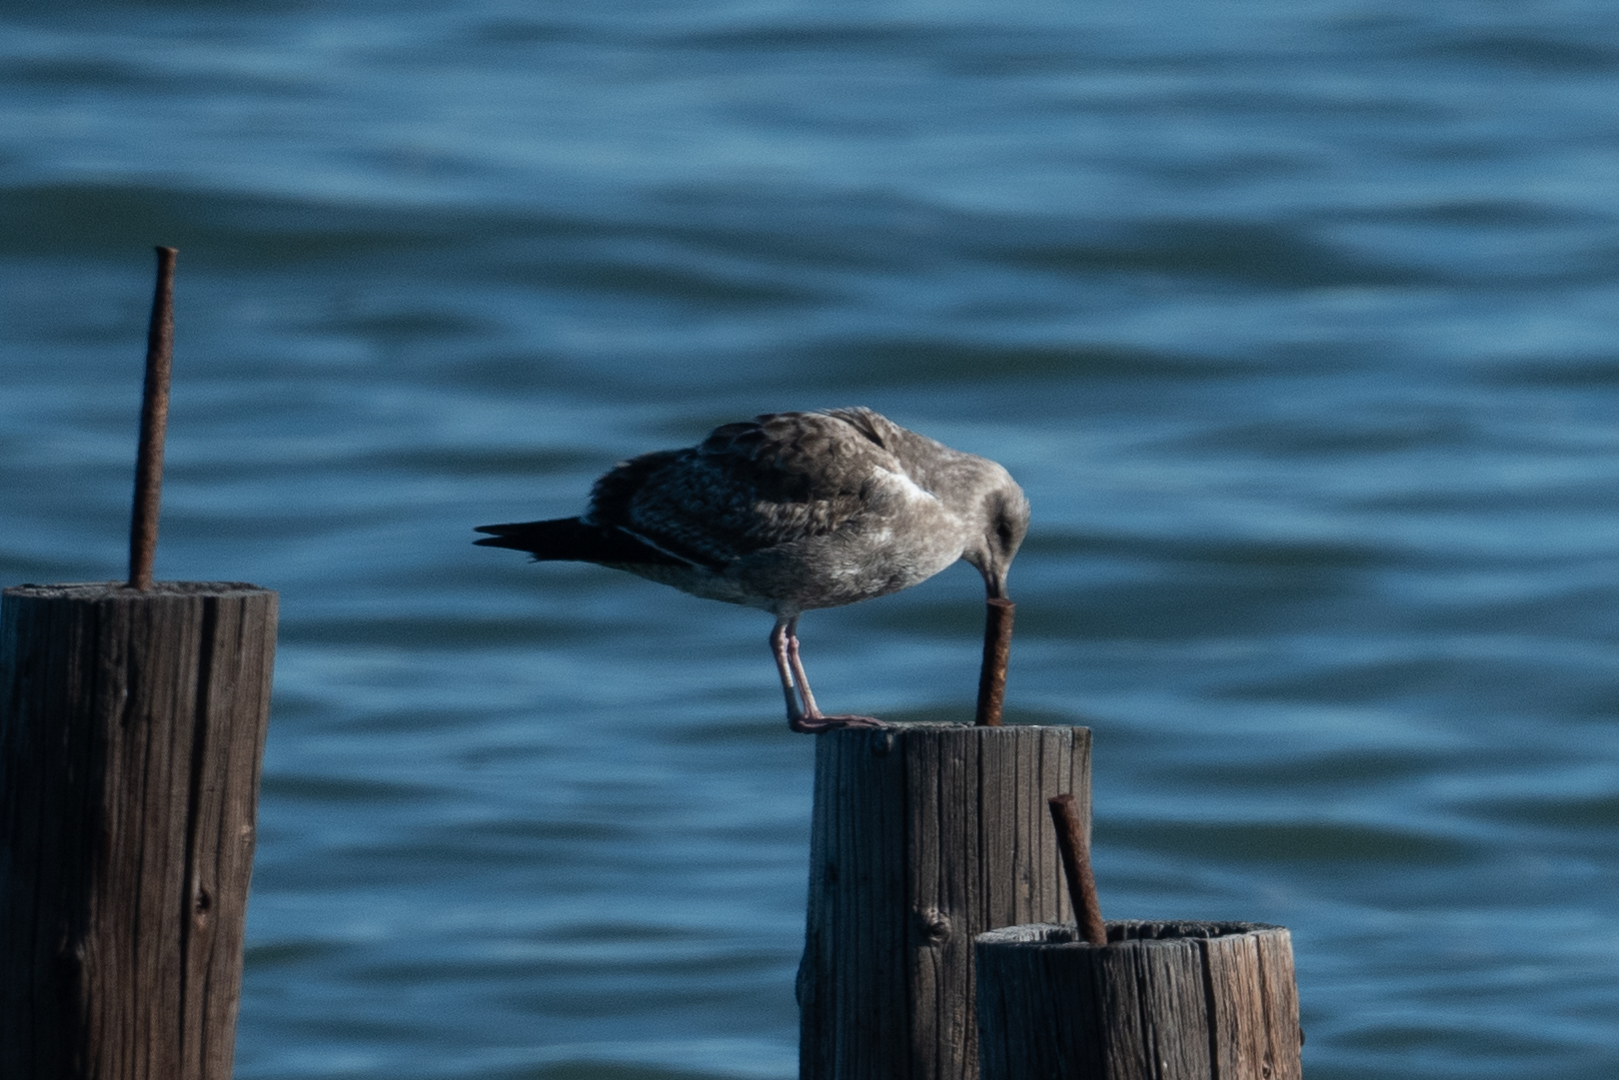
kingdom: Animalia
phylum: Chordata
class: Aves
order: Charadriiformes
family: Laridae
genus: Larus
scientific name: Larus occidentalis
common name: Western gull
